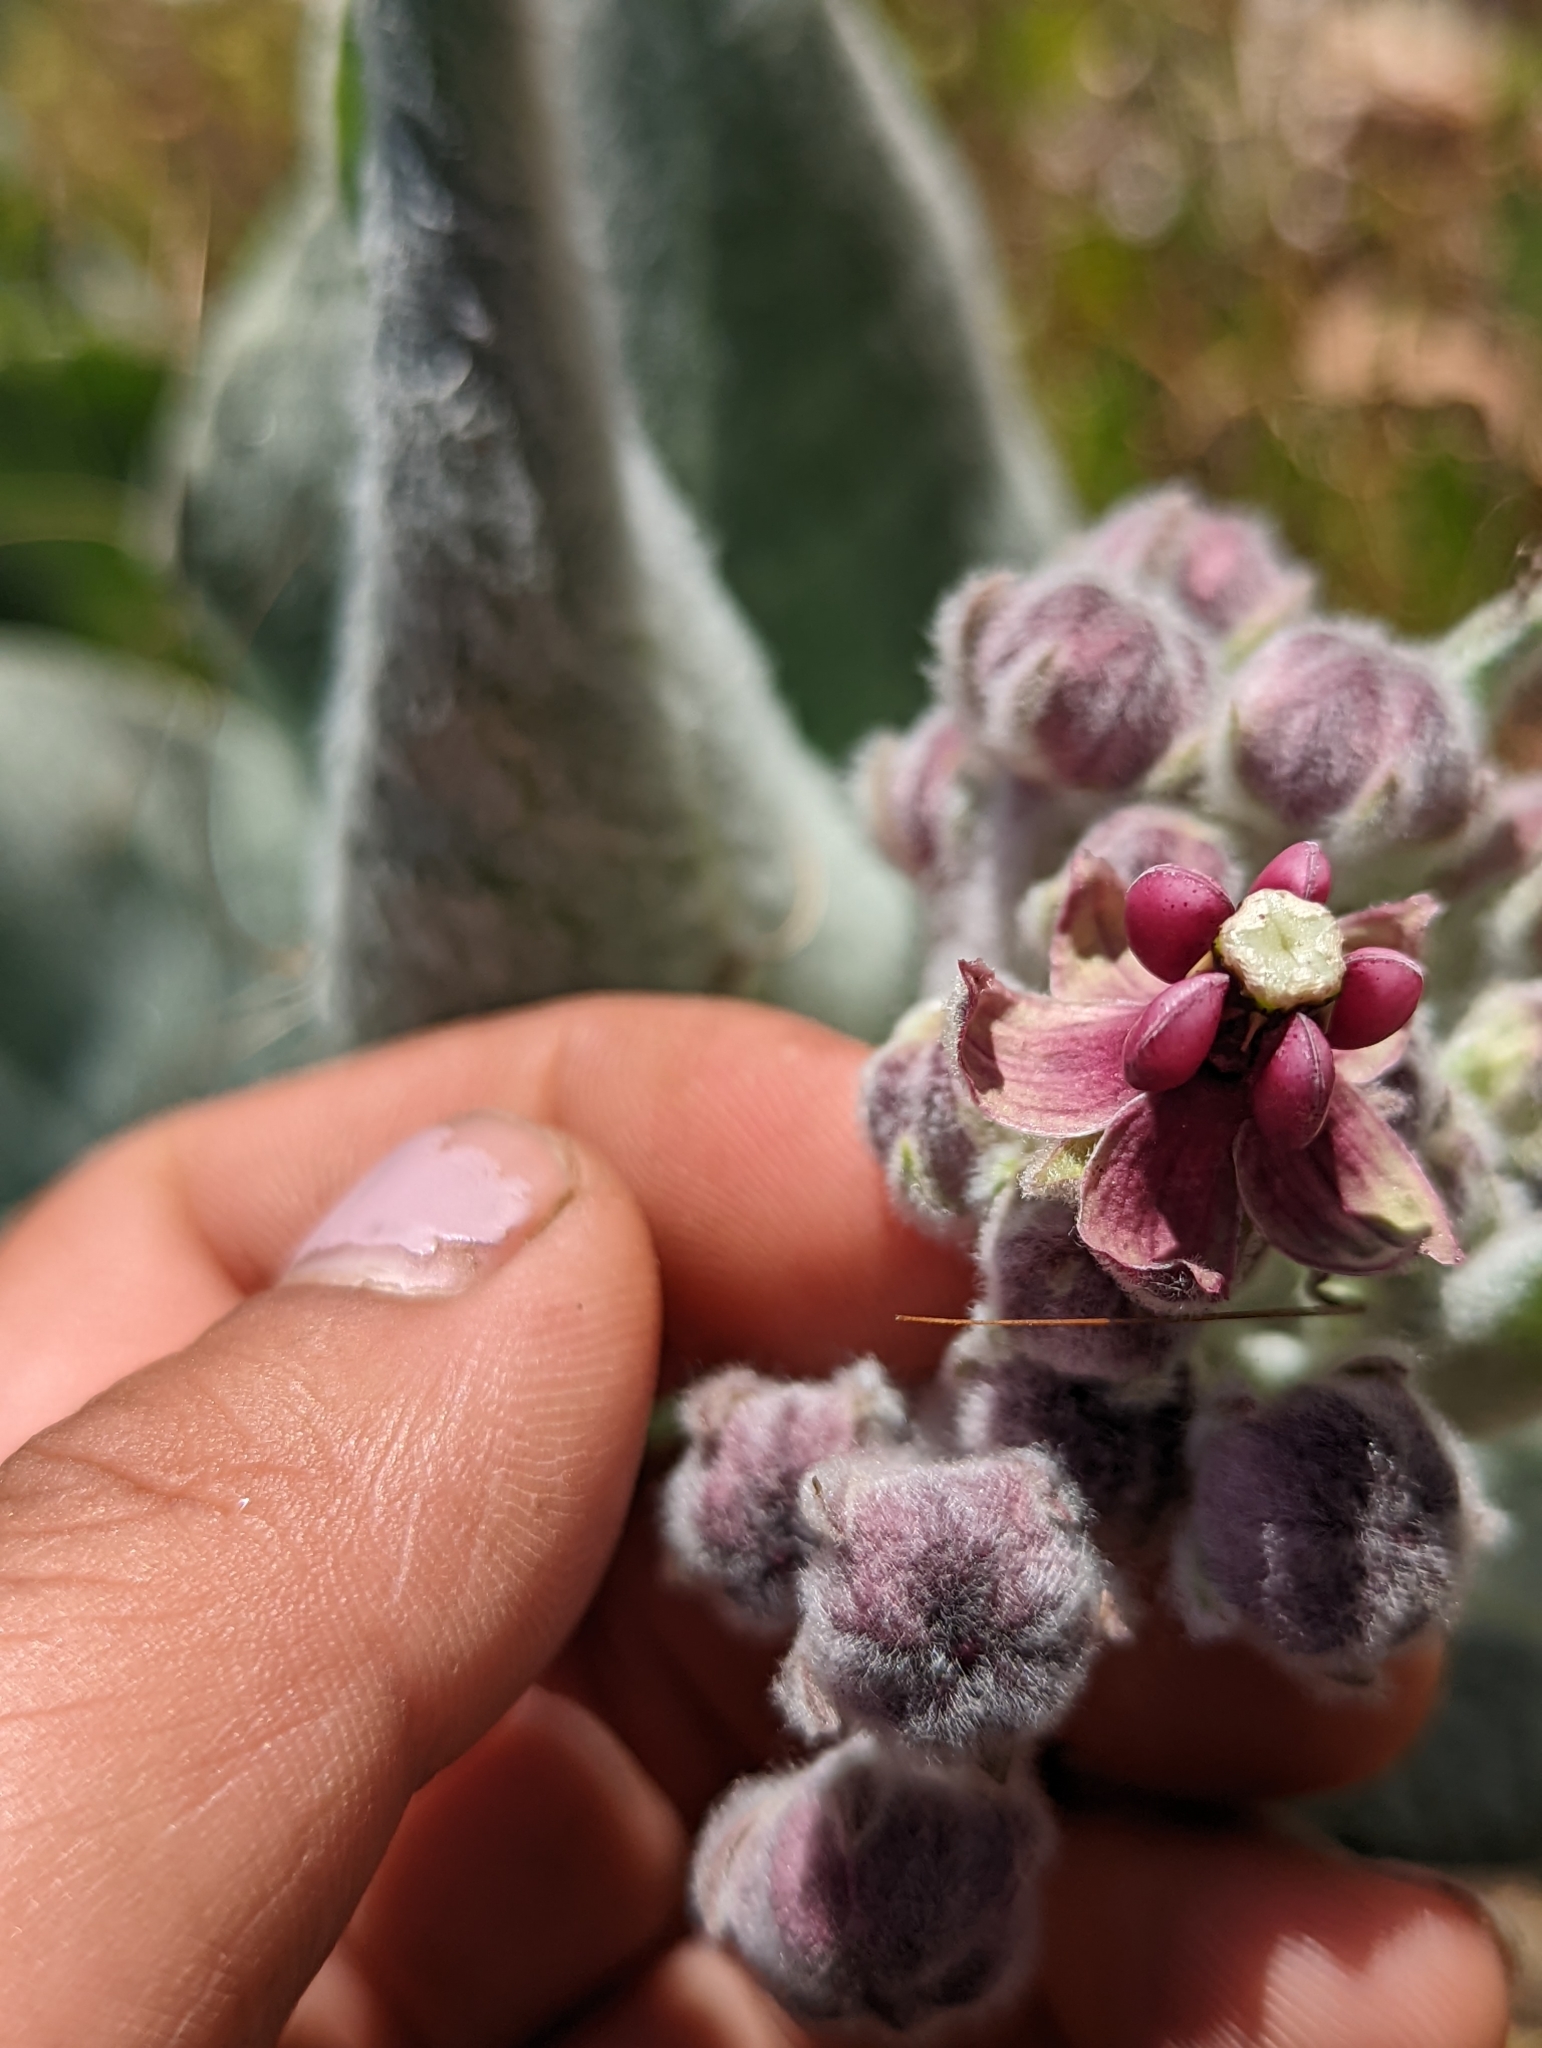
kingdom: Plantae
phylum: Tracheophyta
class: Magnoliopsida
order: Gentianales
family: Apocynaceae
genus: Asclepias
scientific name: Asclepias californica
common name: California milkweed
